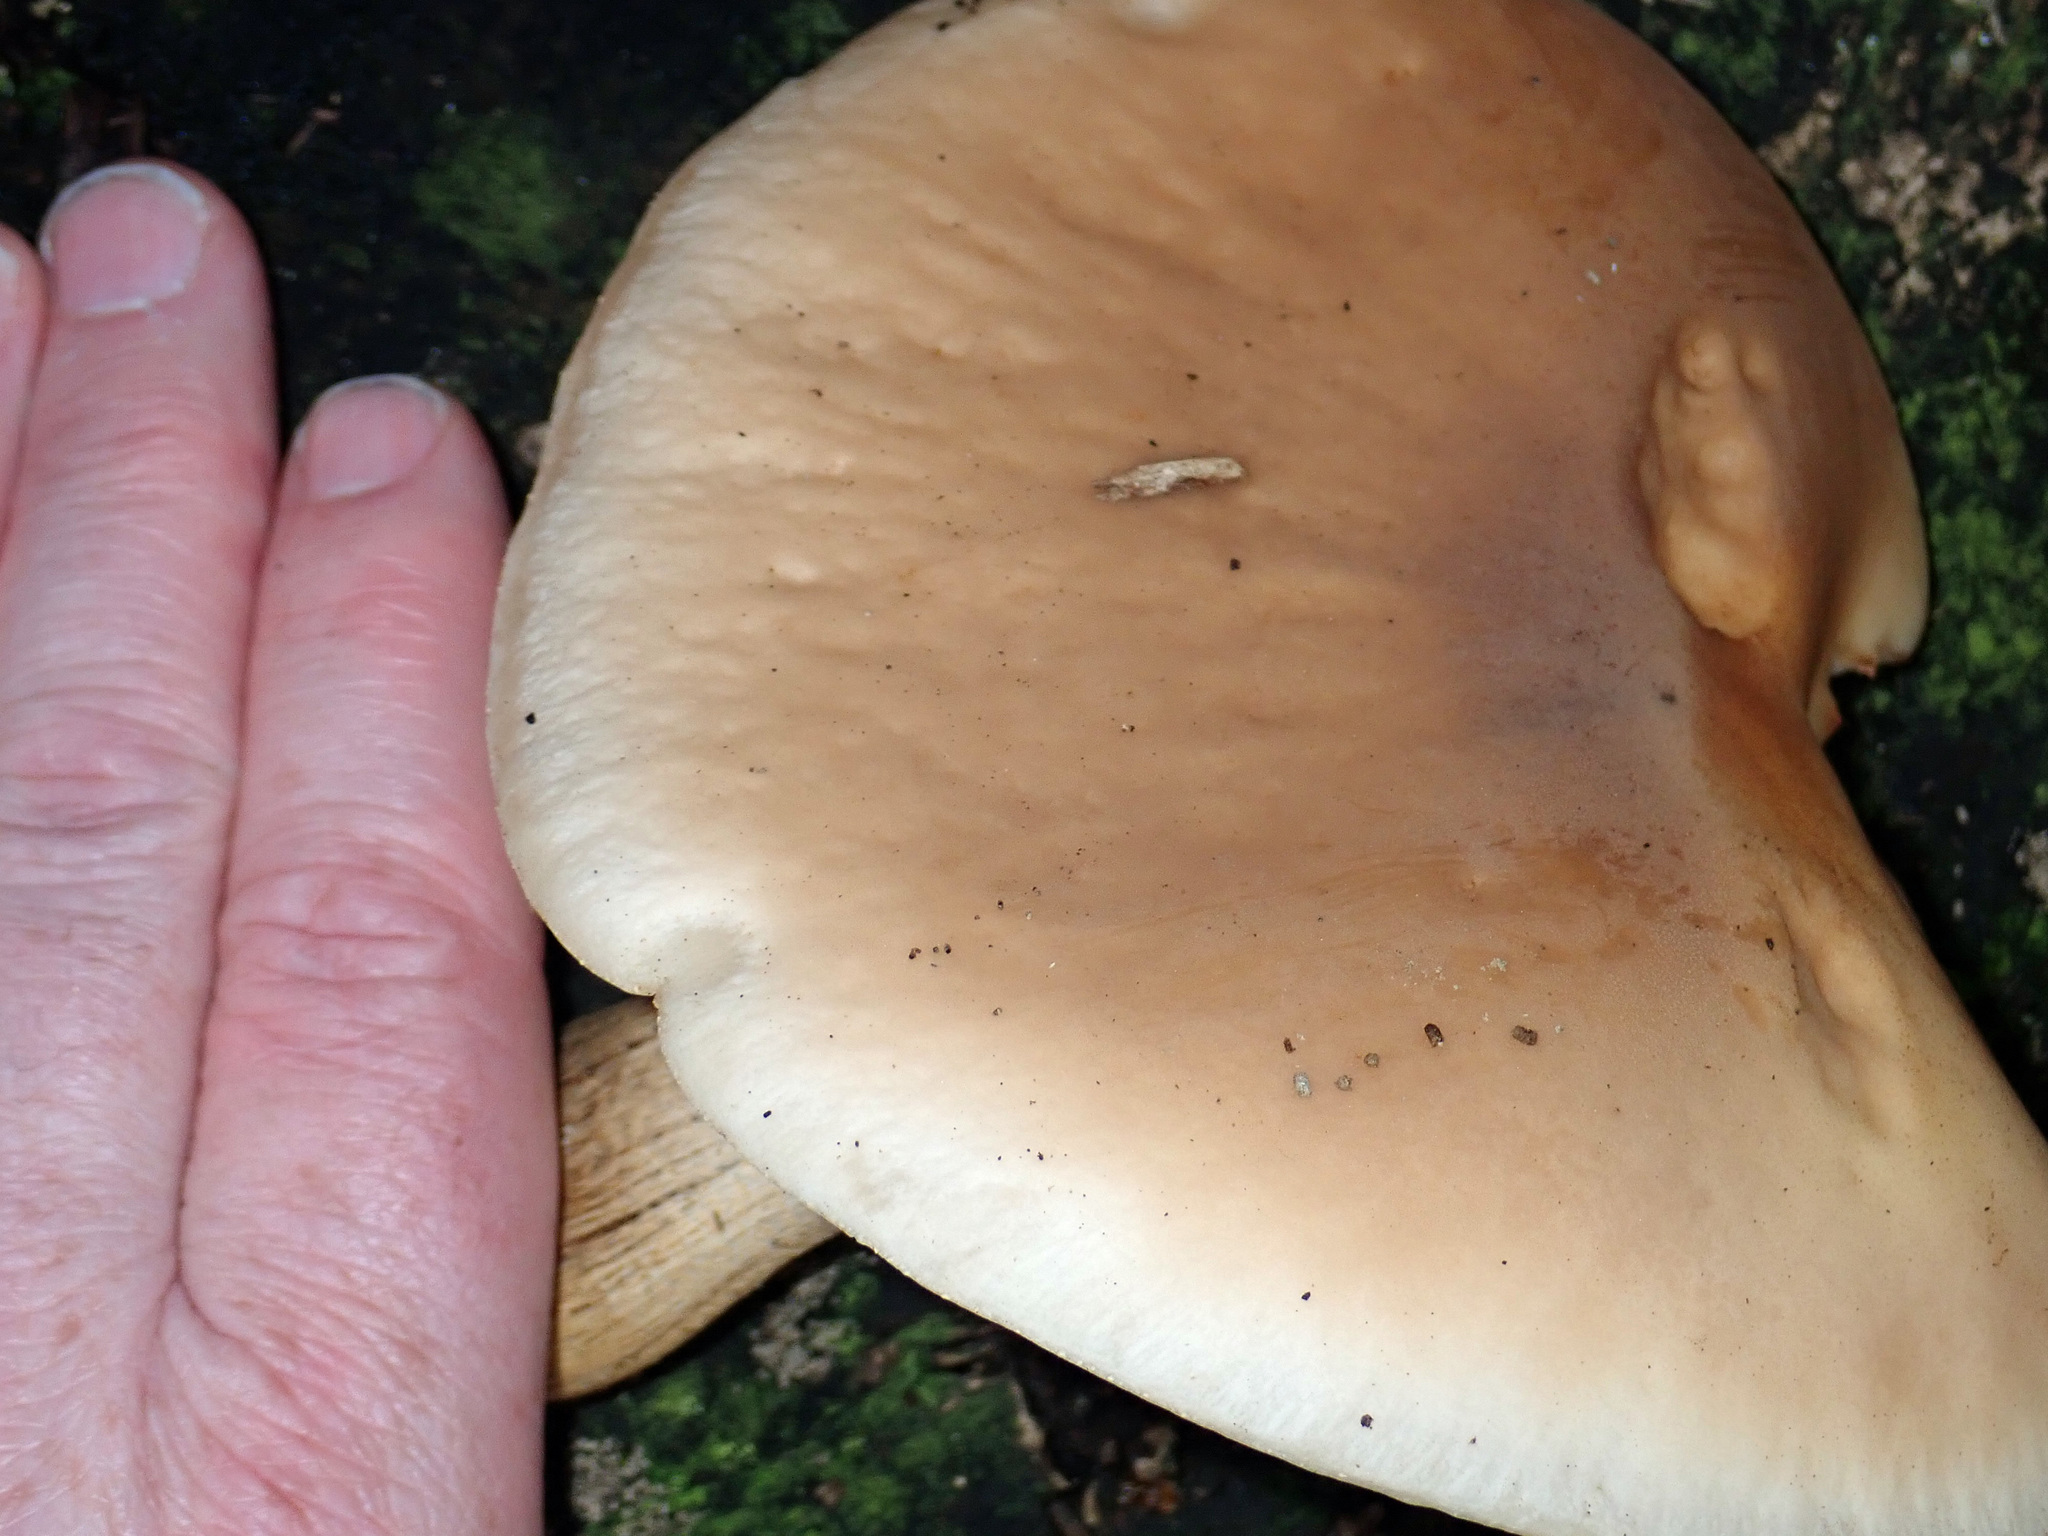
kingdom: Fungi
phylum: Basidiomycota
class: Agaricomycetes
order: Agaricales
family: Tubariaceae
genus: Cyclocybe
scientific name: Cyclocybe parasitica
